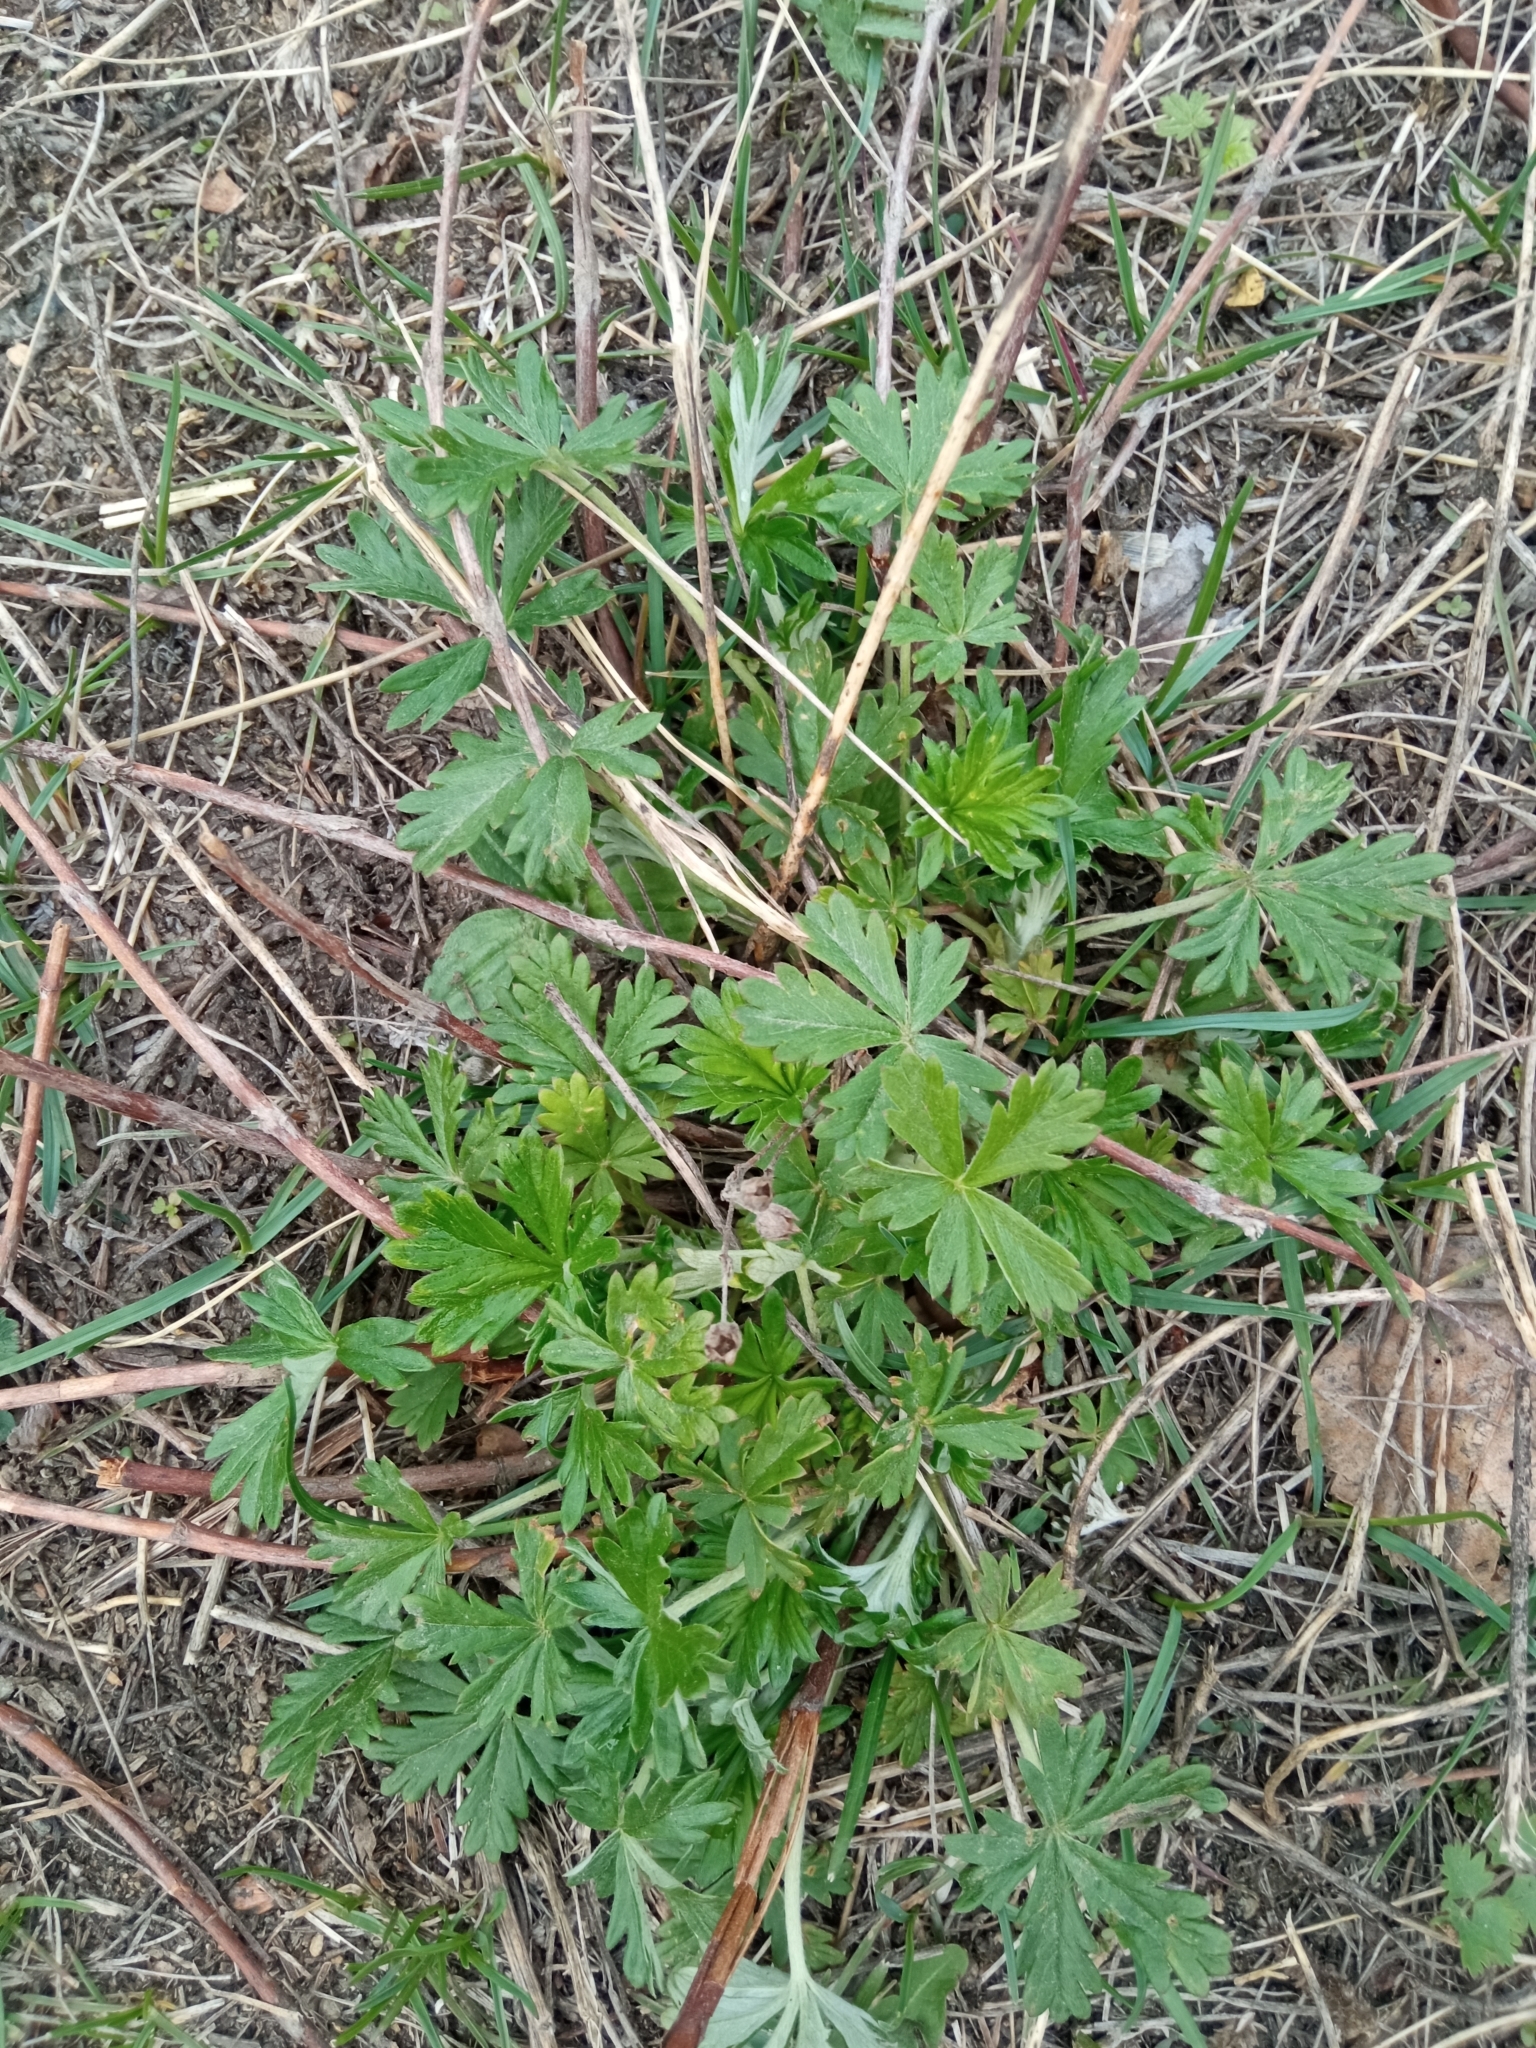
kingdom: Plantae
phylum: Tracheophyta
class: Magnoliopsida
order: Rosales
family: Rosaceae
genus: Potentilla
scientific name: Potentilla argentea
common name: Hoary cinquefoil
